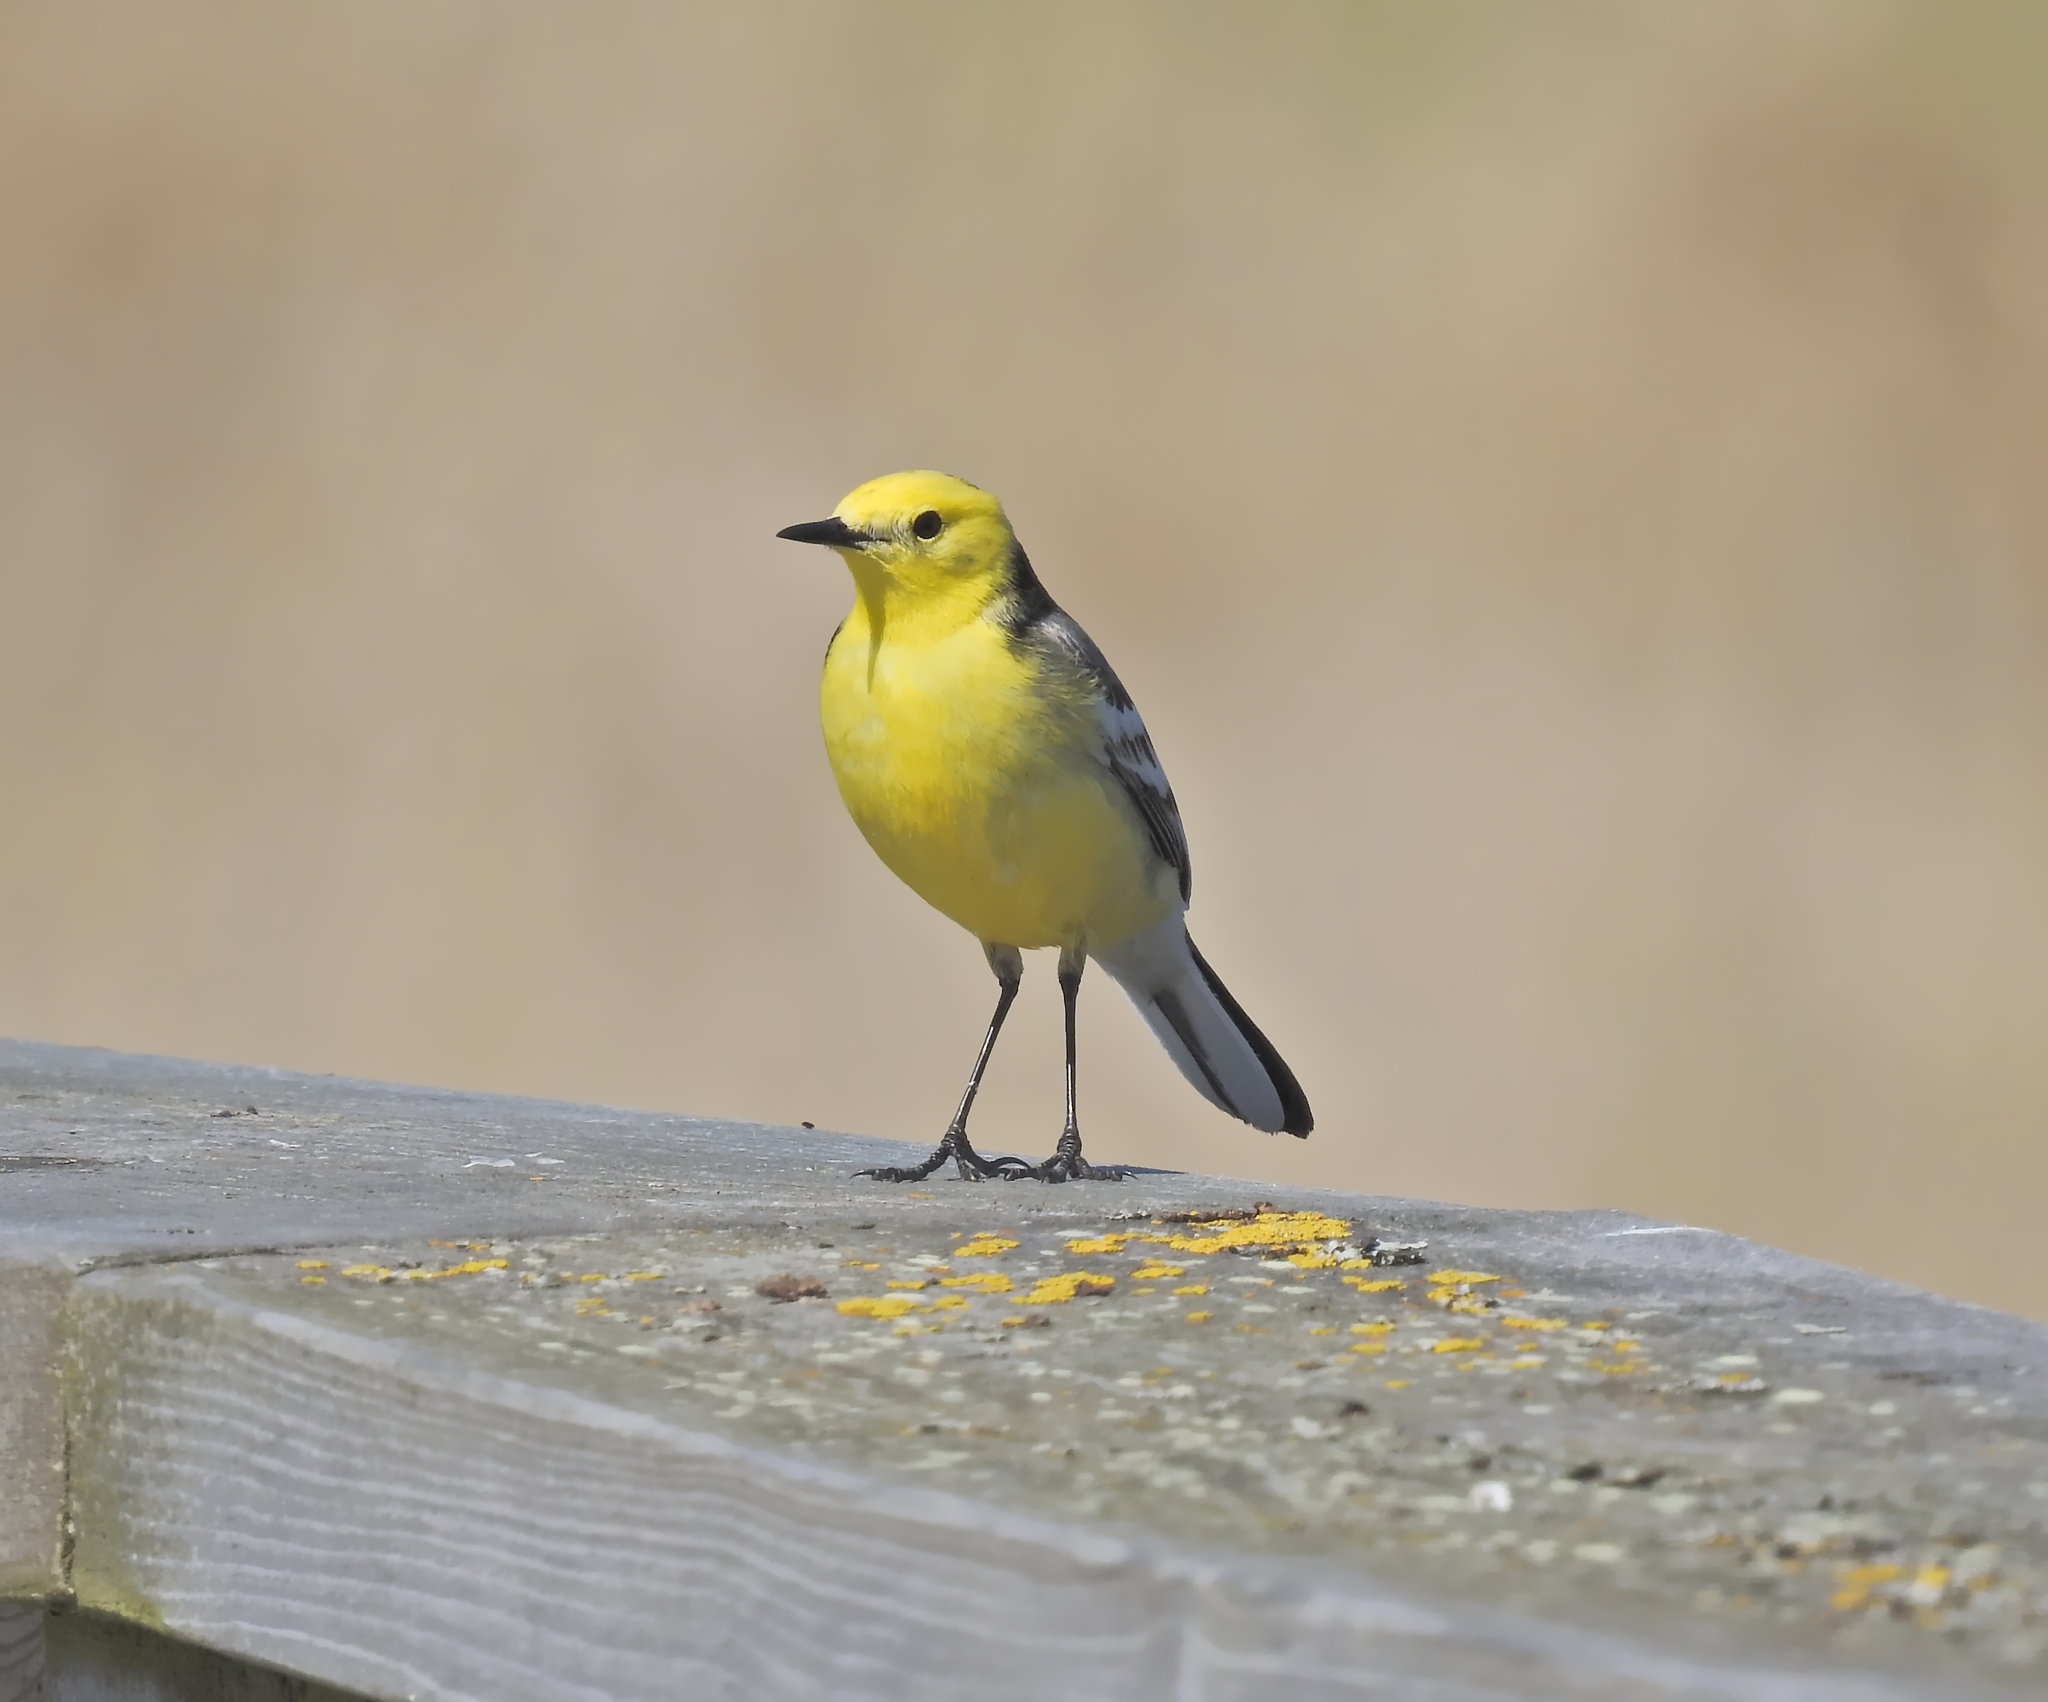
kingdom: Animalia
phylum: Chordata
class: Aves
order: Passeriformes
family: Motacillidae
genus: Motacilla
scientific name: Motacilla citreola
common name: Citrine wagtail
